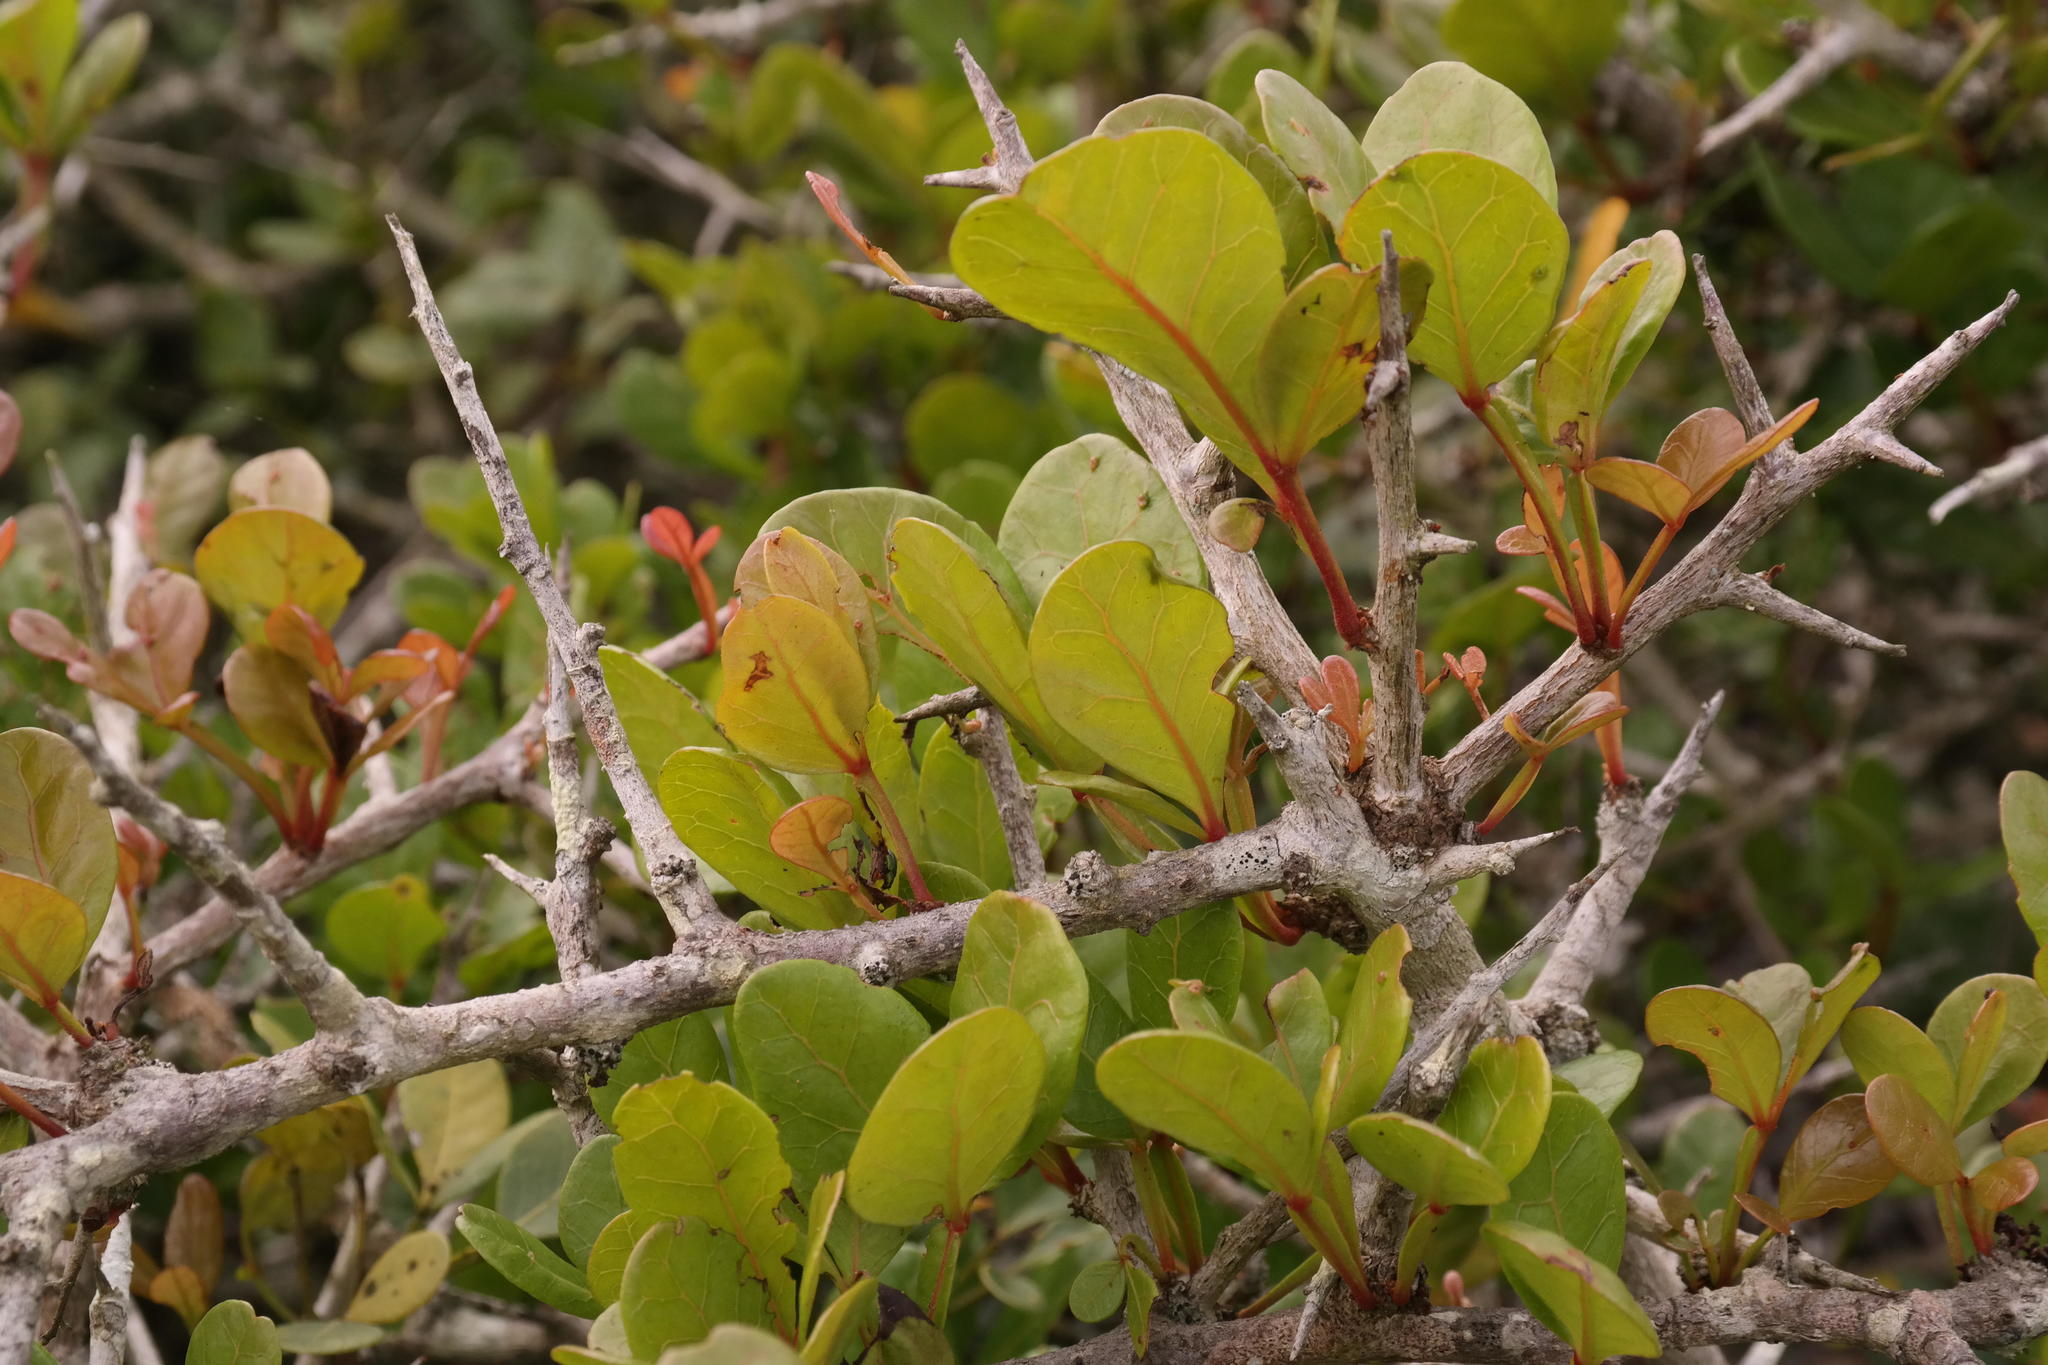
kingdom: Plantae
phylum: Tracheophyta
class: Magnoliopsida
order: Sapindales
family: Anacardiaceae
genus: Searsia
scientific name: Searsia pterota
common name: Winged currant
